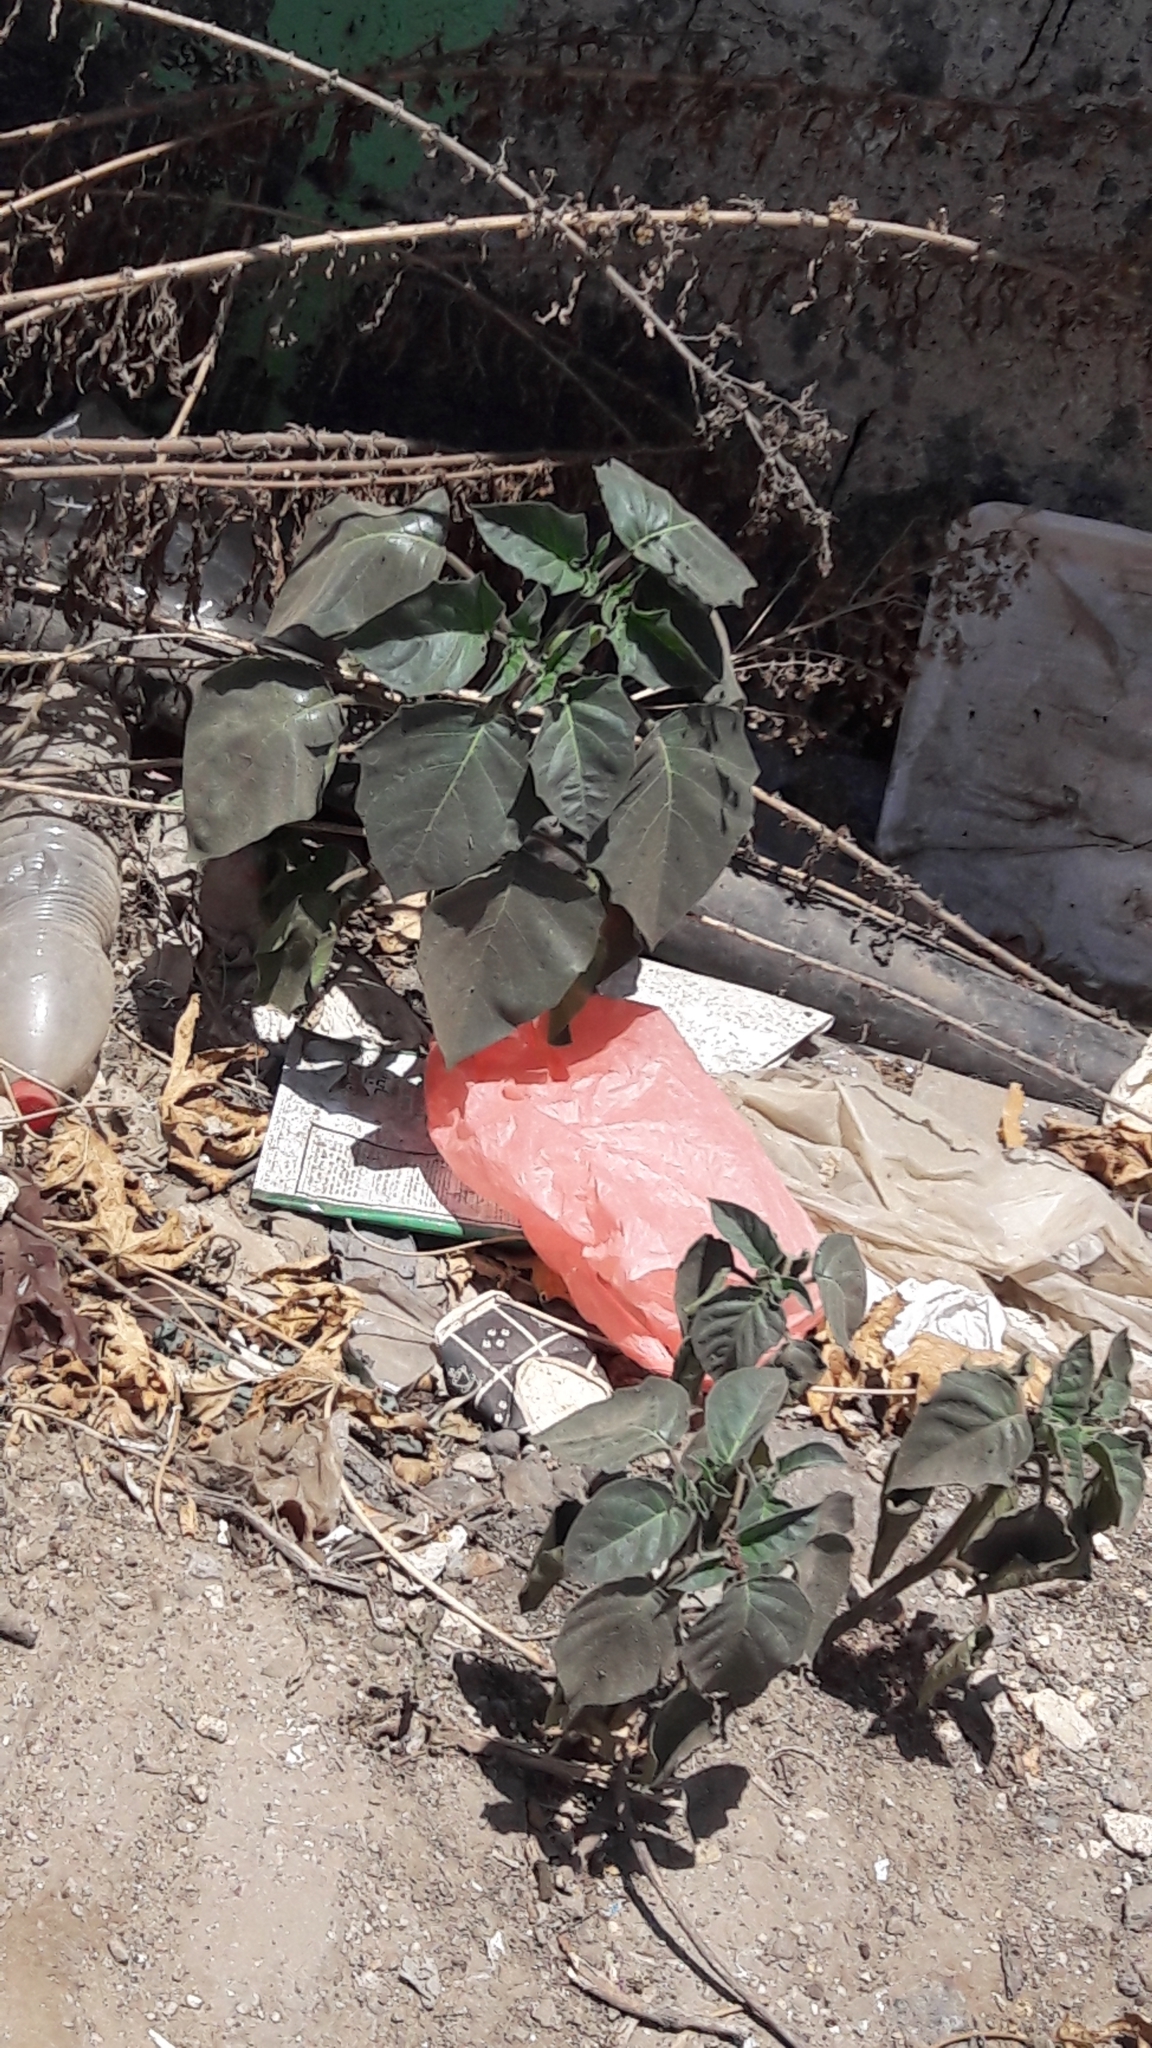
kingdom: Plantae
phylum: Tracheophyta
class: Magnoliopsida
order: Solanales
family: Solanaceae
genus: Datura
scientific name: Datura innoxia
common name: Downy thorn-apple
